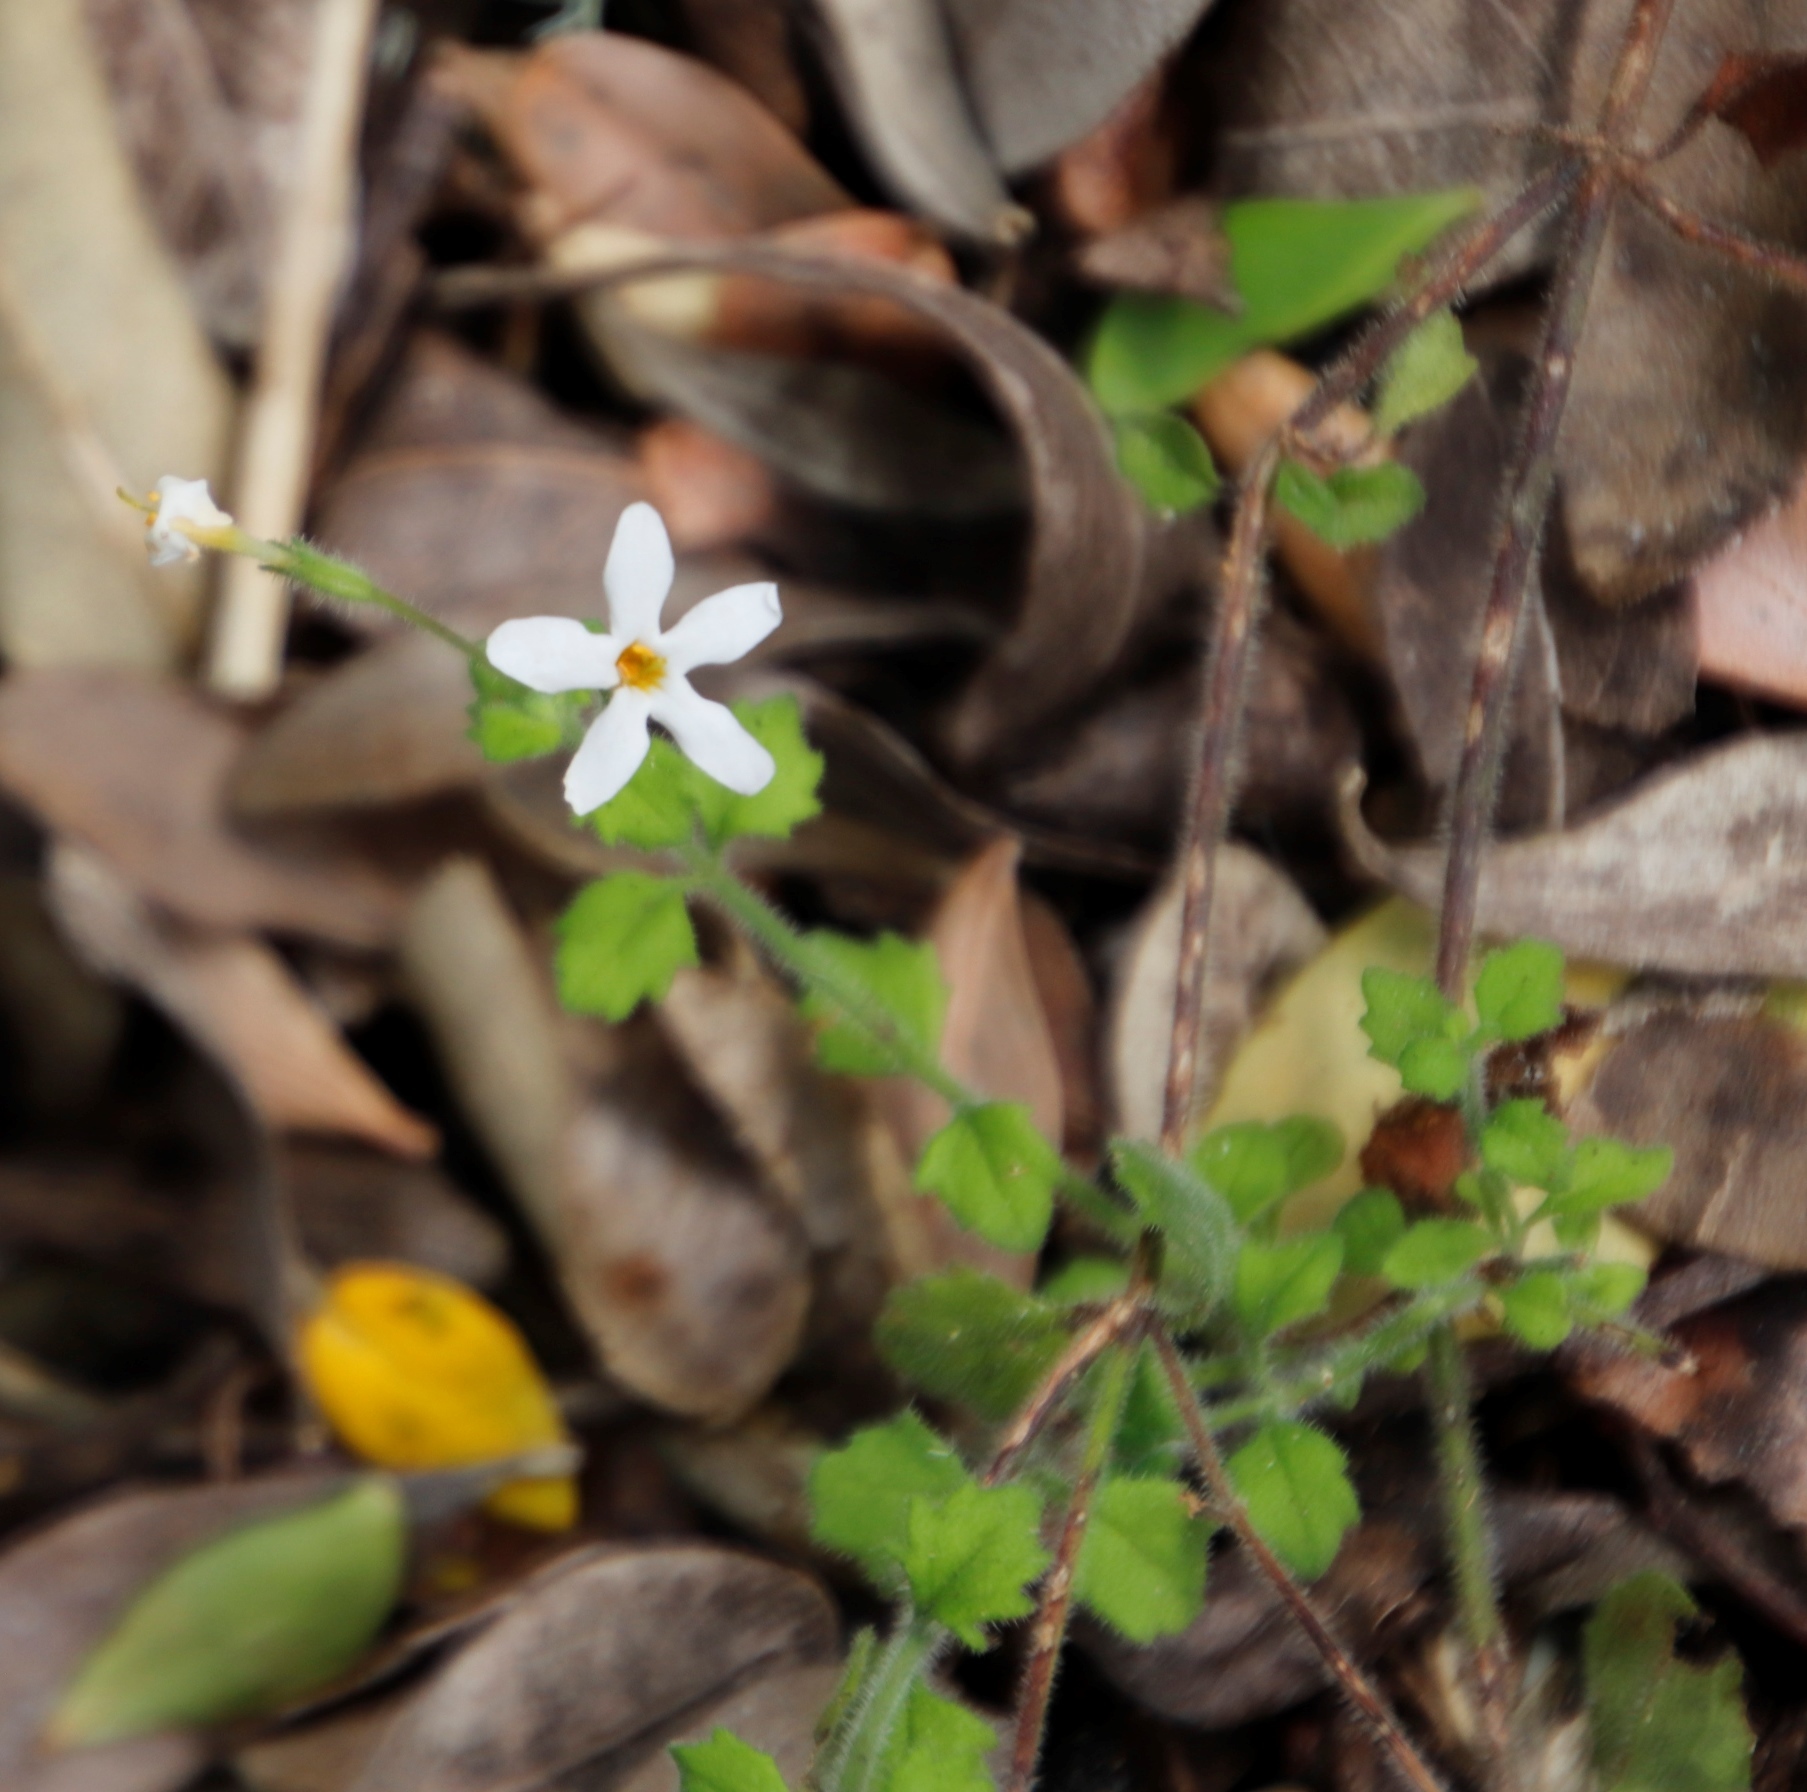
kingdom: Plantae
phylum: Tracheophyta
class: Magnoliopsida
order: Lamiales
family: Scrophulariaceae
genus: Chaenostoma
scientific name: Chaenostoma hispidum
